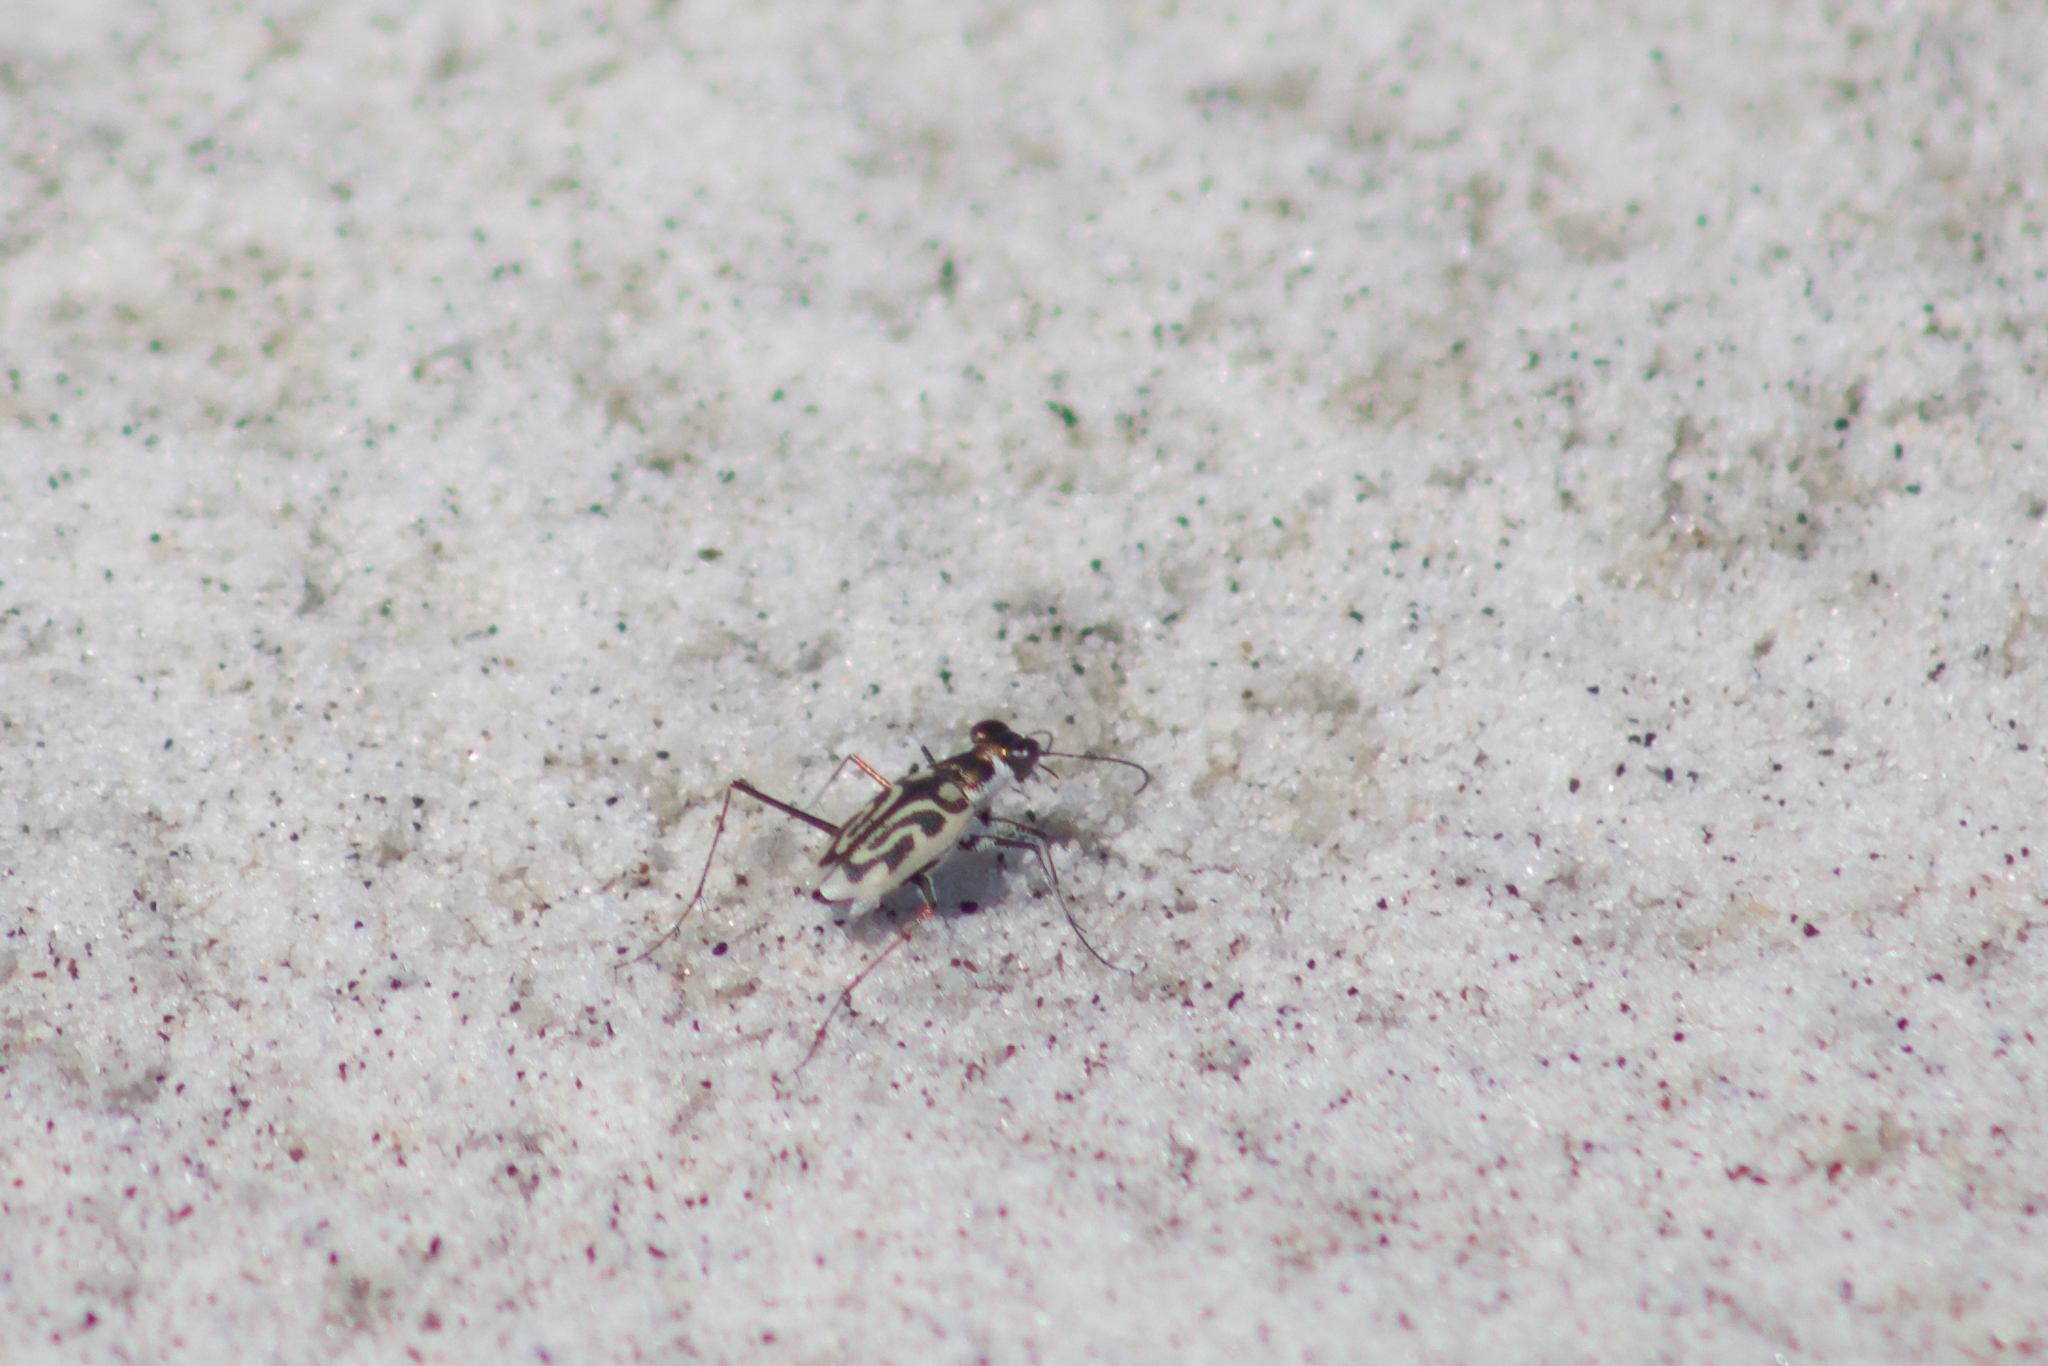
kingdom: Animalia
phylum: Arthropoda
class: Insecta
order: Coleoptera
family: Carabidae
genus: Habroscelimorpha
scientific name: Habroscelimorpha dorsalis
